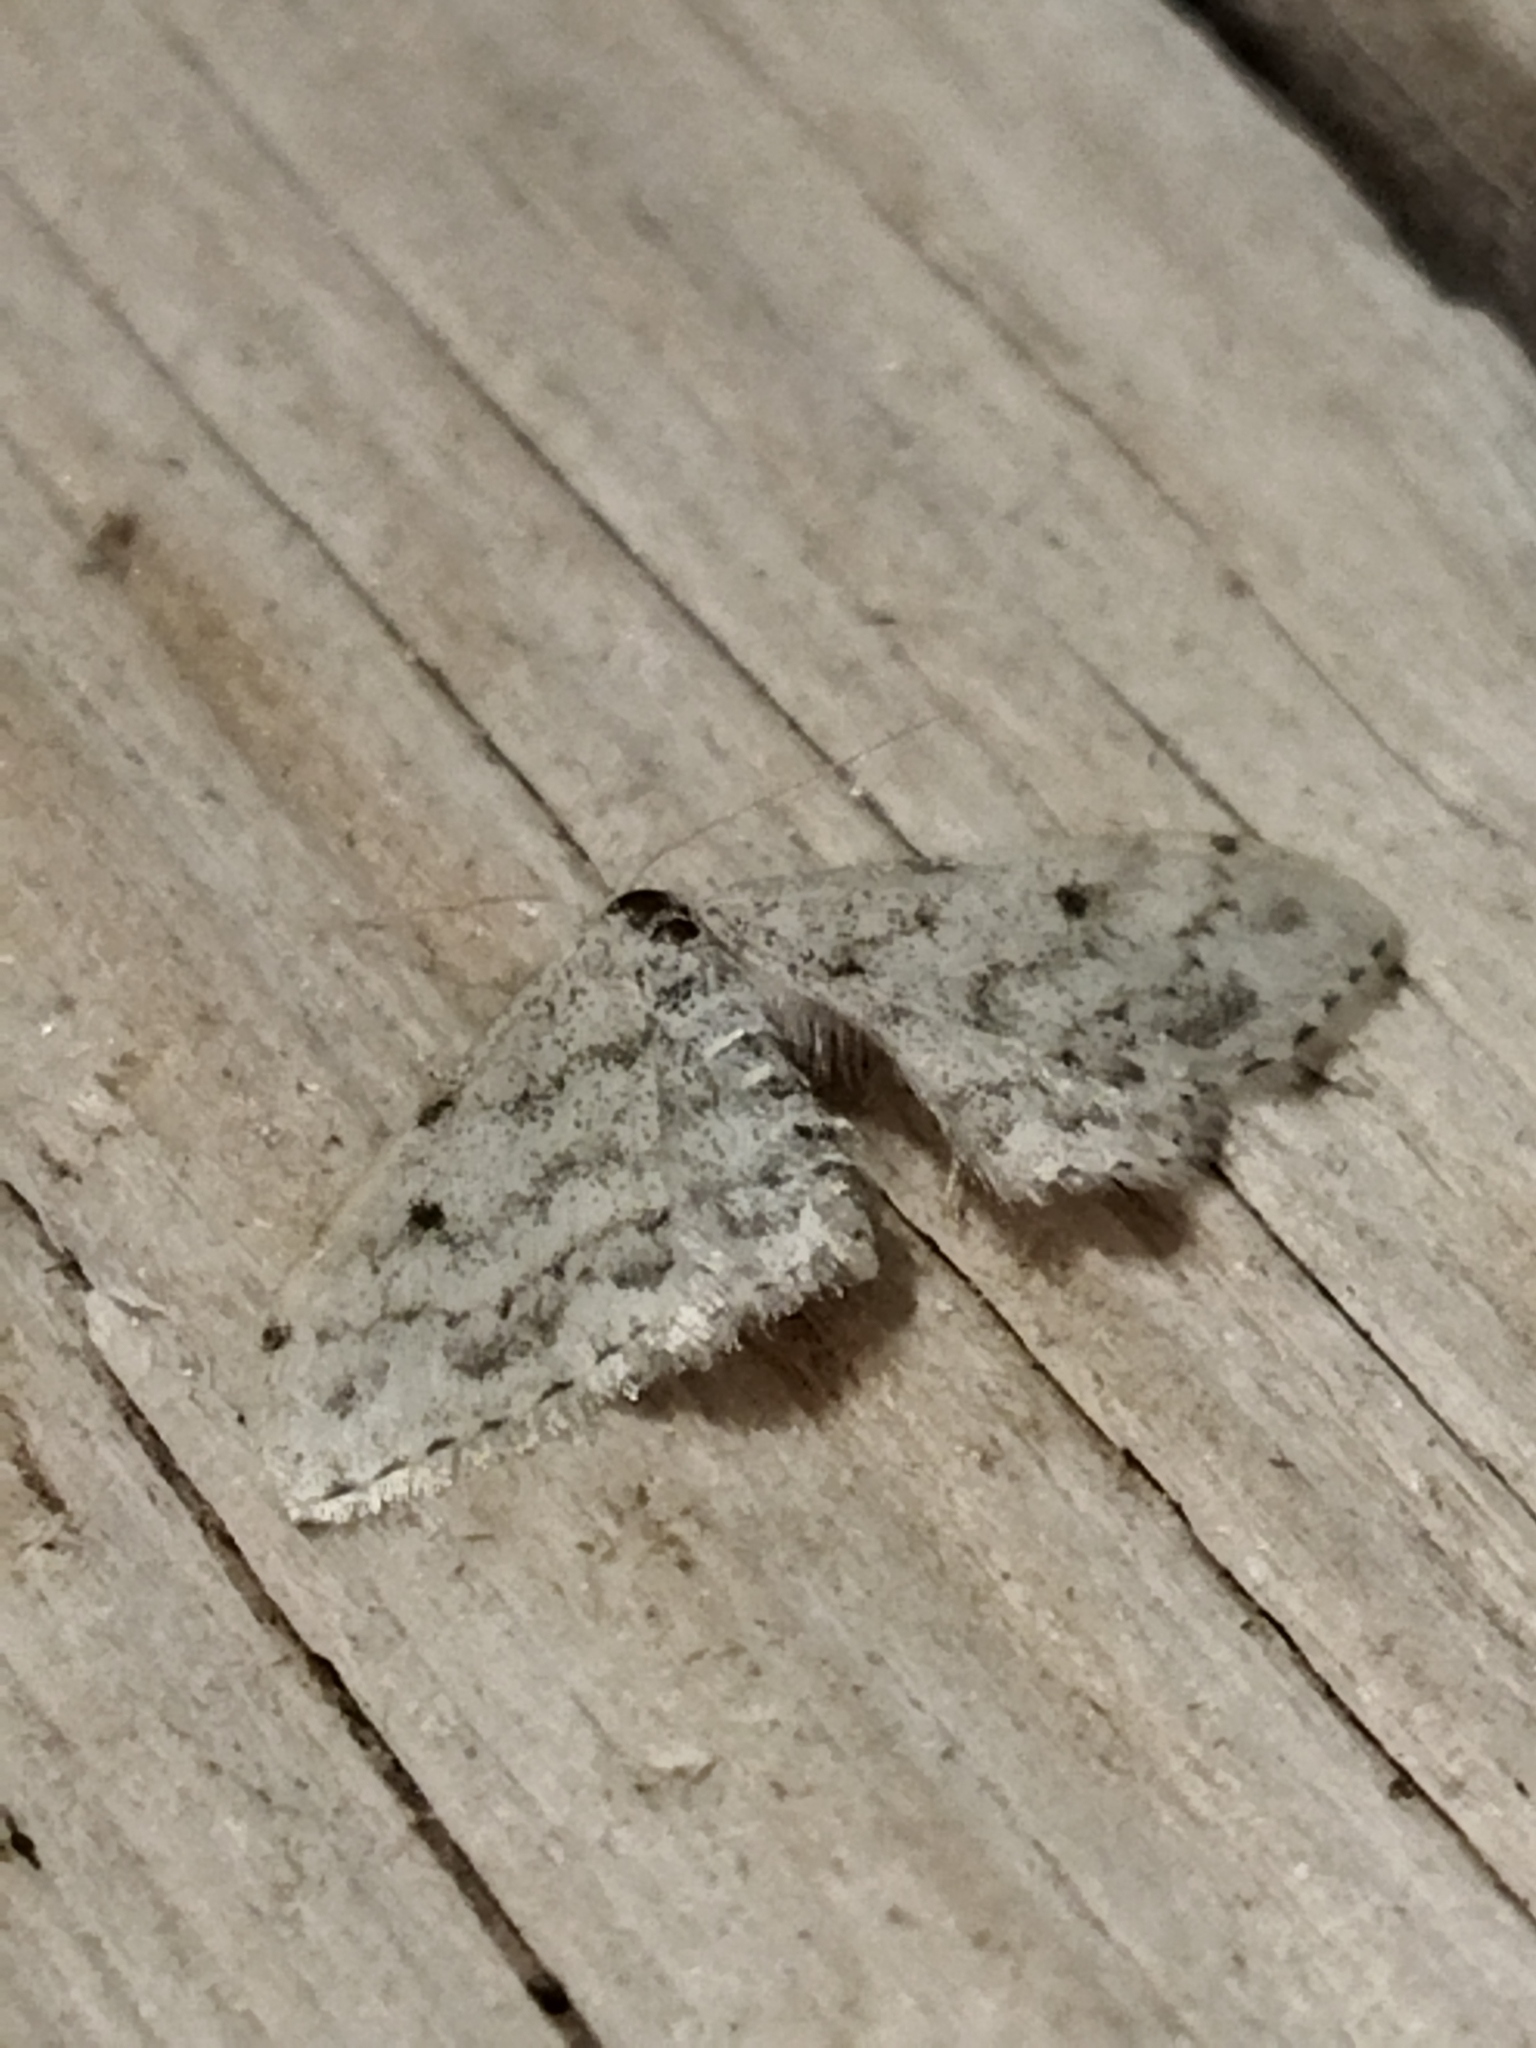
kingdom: Animalia
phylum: Arthropoda
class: Insecta
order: Lepidoptera
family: Geometridae
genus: Idaea
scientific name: Idaea camparia
